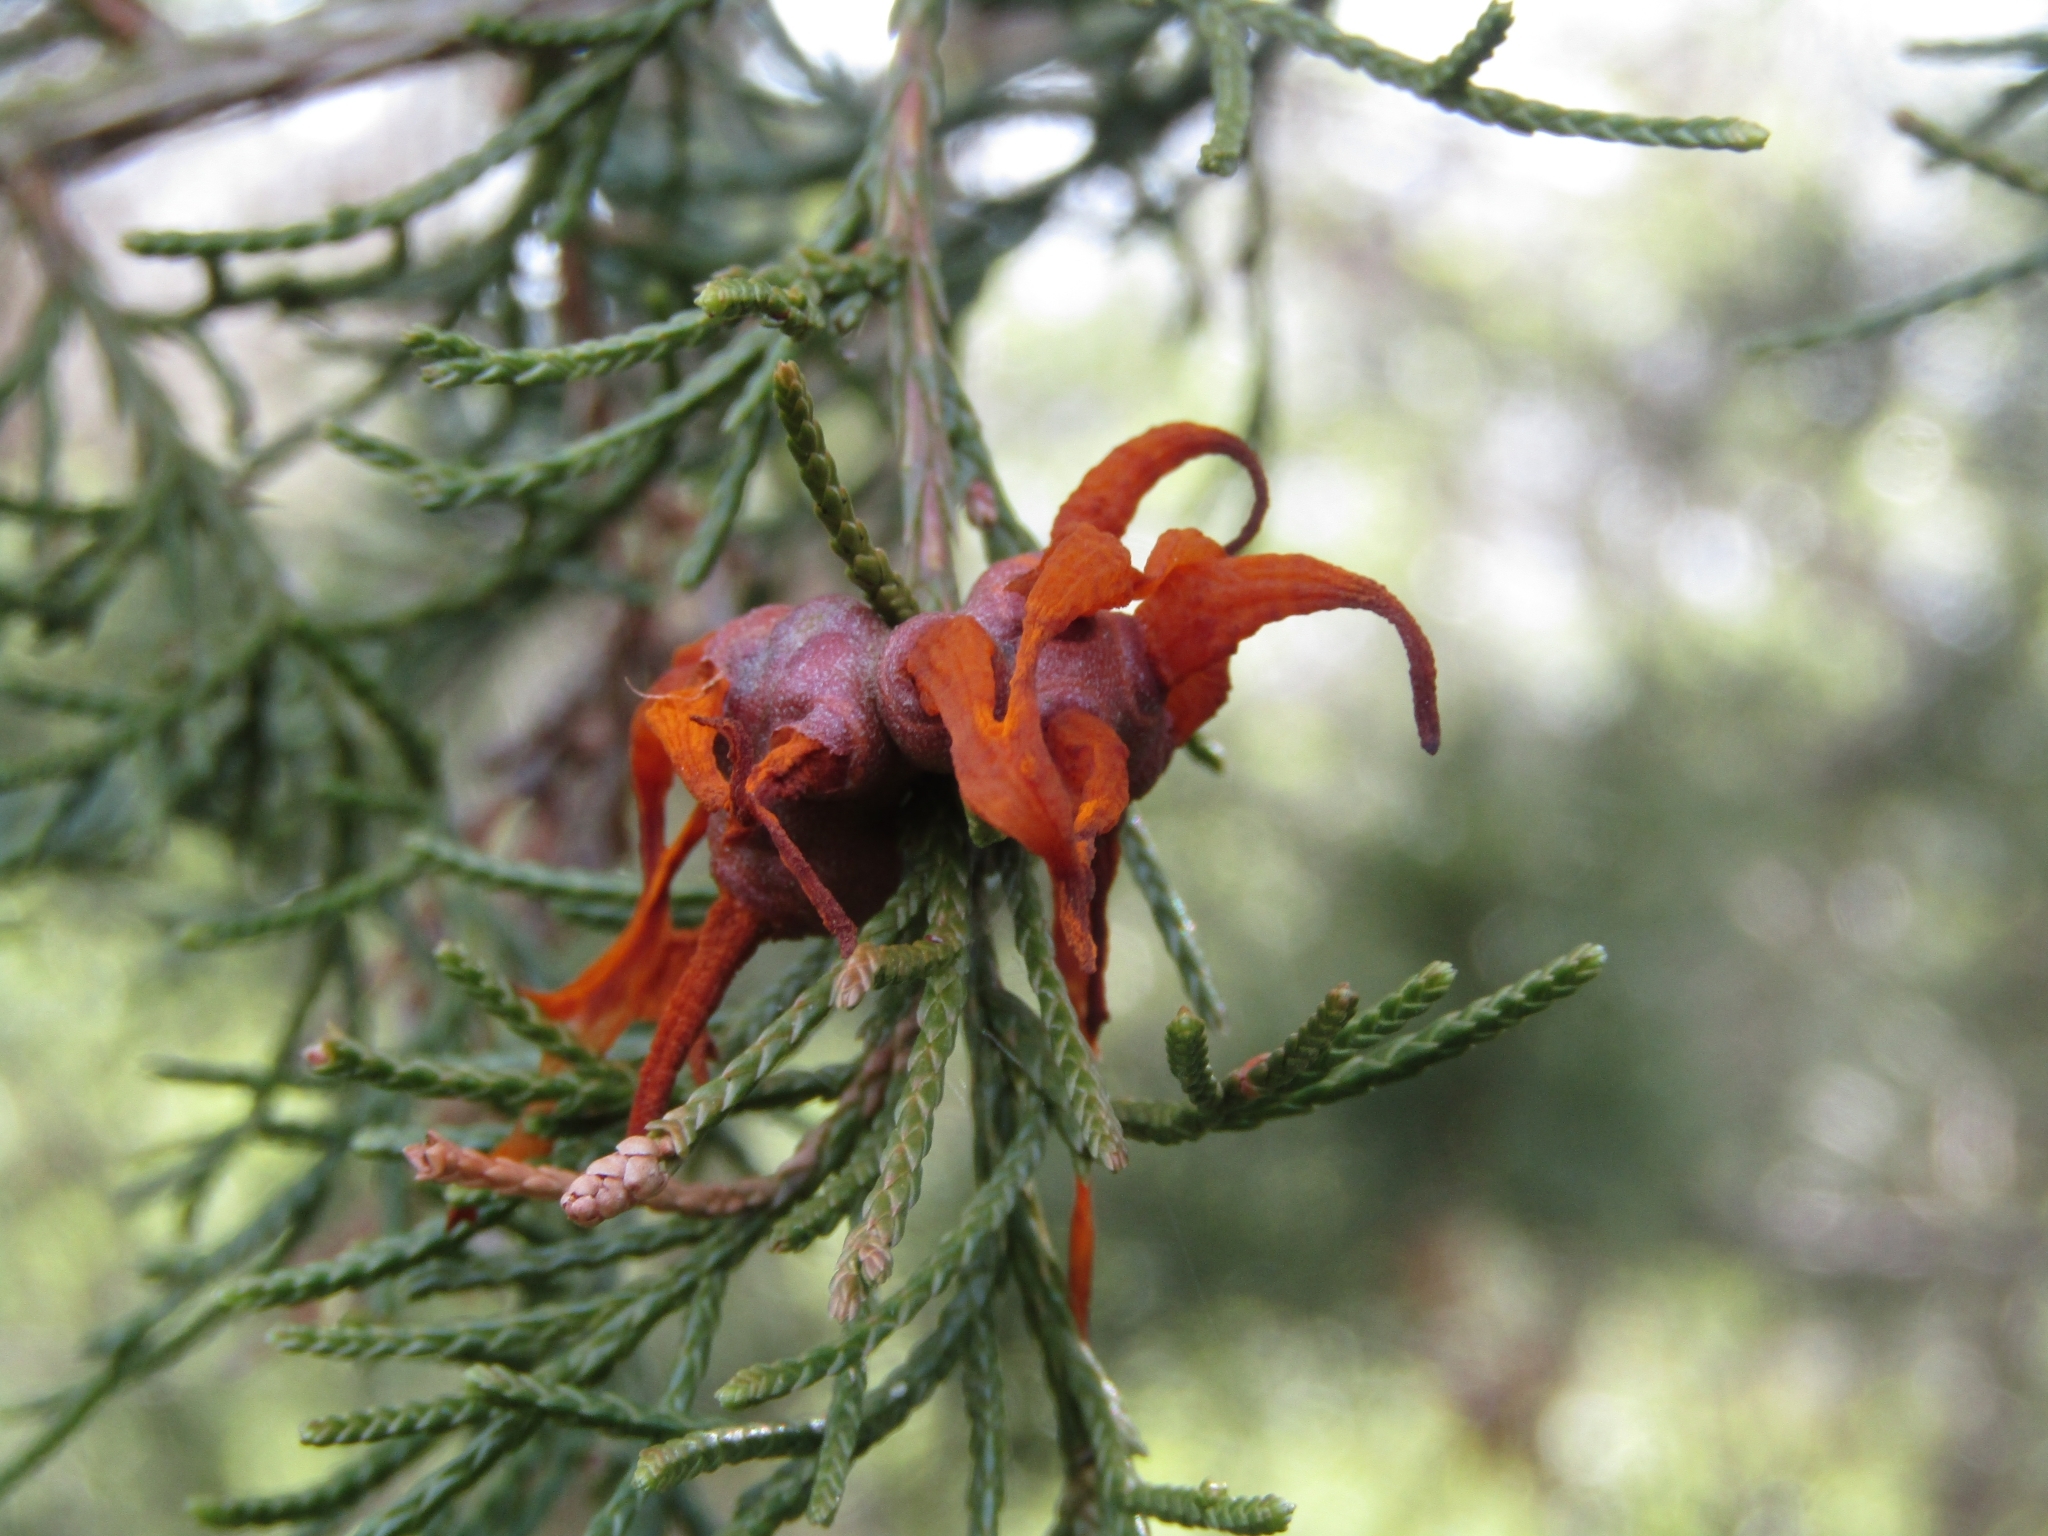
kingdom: Fungi
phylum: Basidiomycota
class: Pucciniomycetes
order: Pucciniales
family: Gymnosporangiaceae
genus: Gymnosporangium
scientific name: Gymnosporangium juniperi-virginianae
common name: Juniper-apple rust
